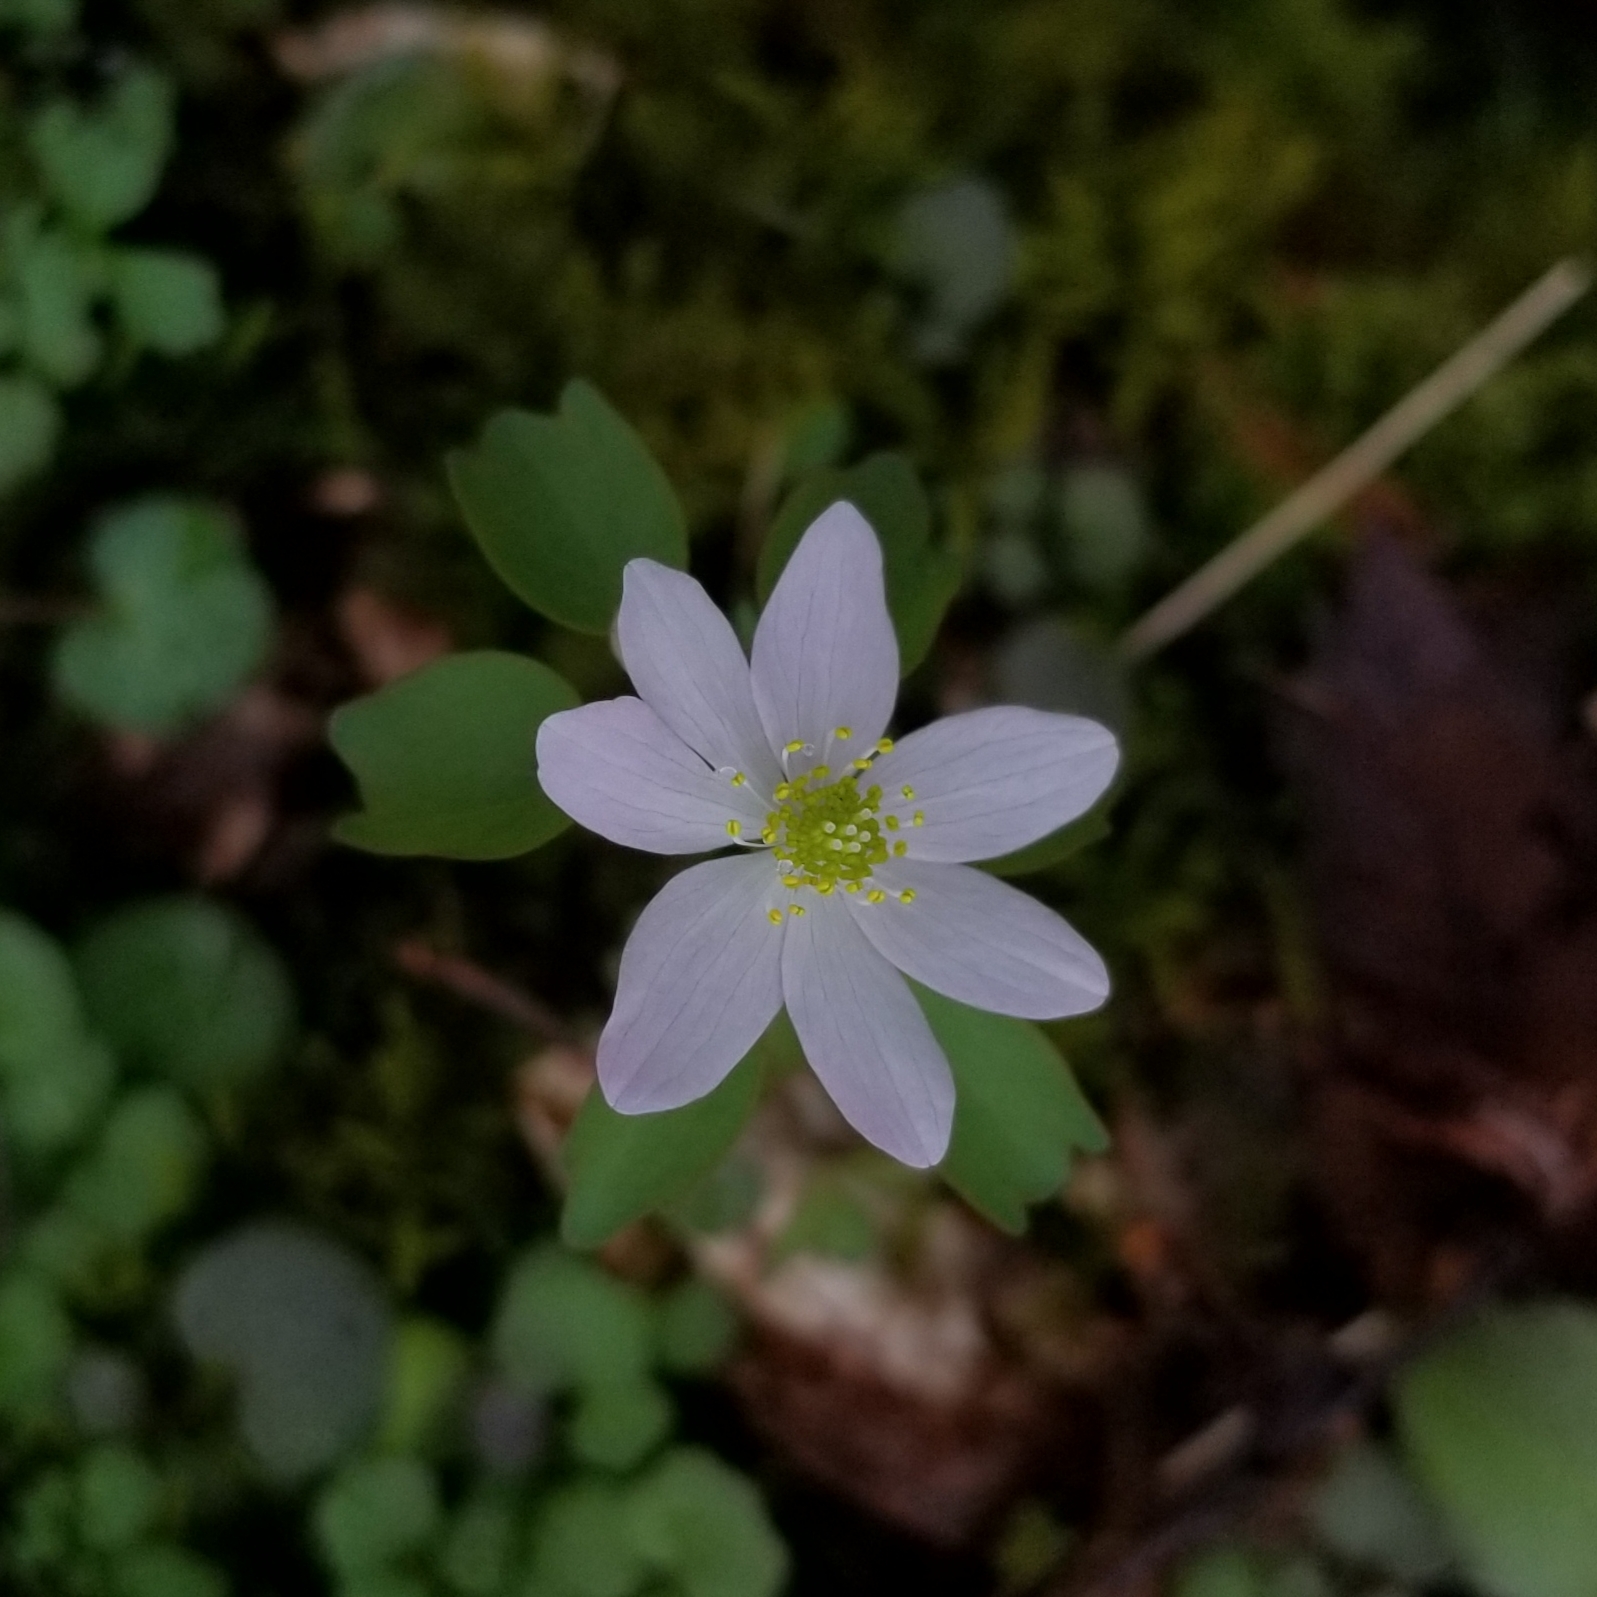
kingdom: Plantae
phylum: Tracheophyta
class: Magnoliopsida
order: Ranunculales
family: Ranunculaceae
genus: Thalictrum
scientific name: Thalictrum thalictroides
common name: Rue-anemone
